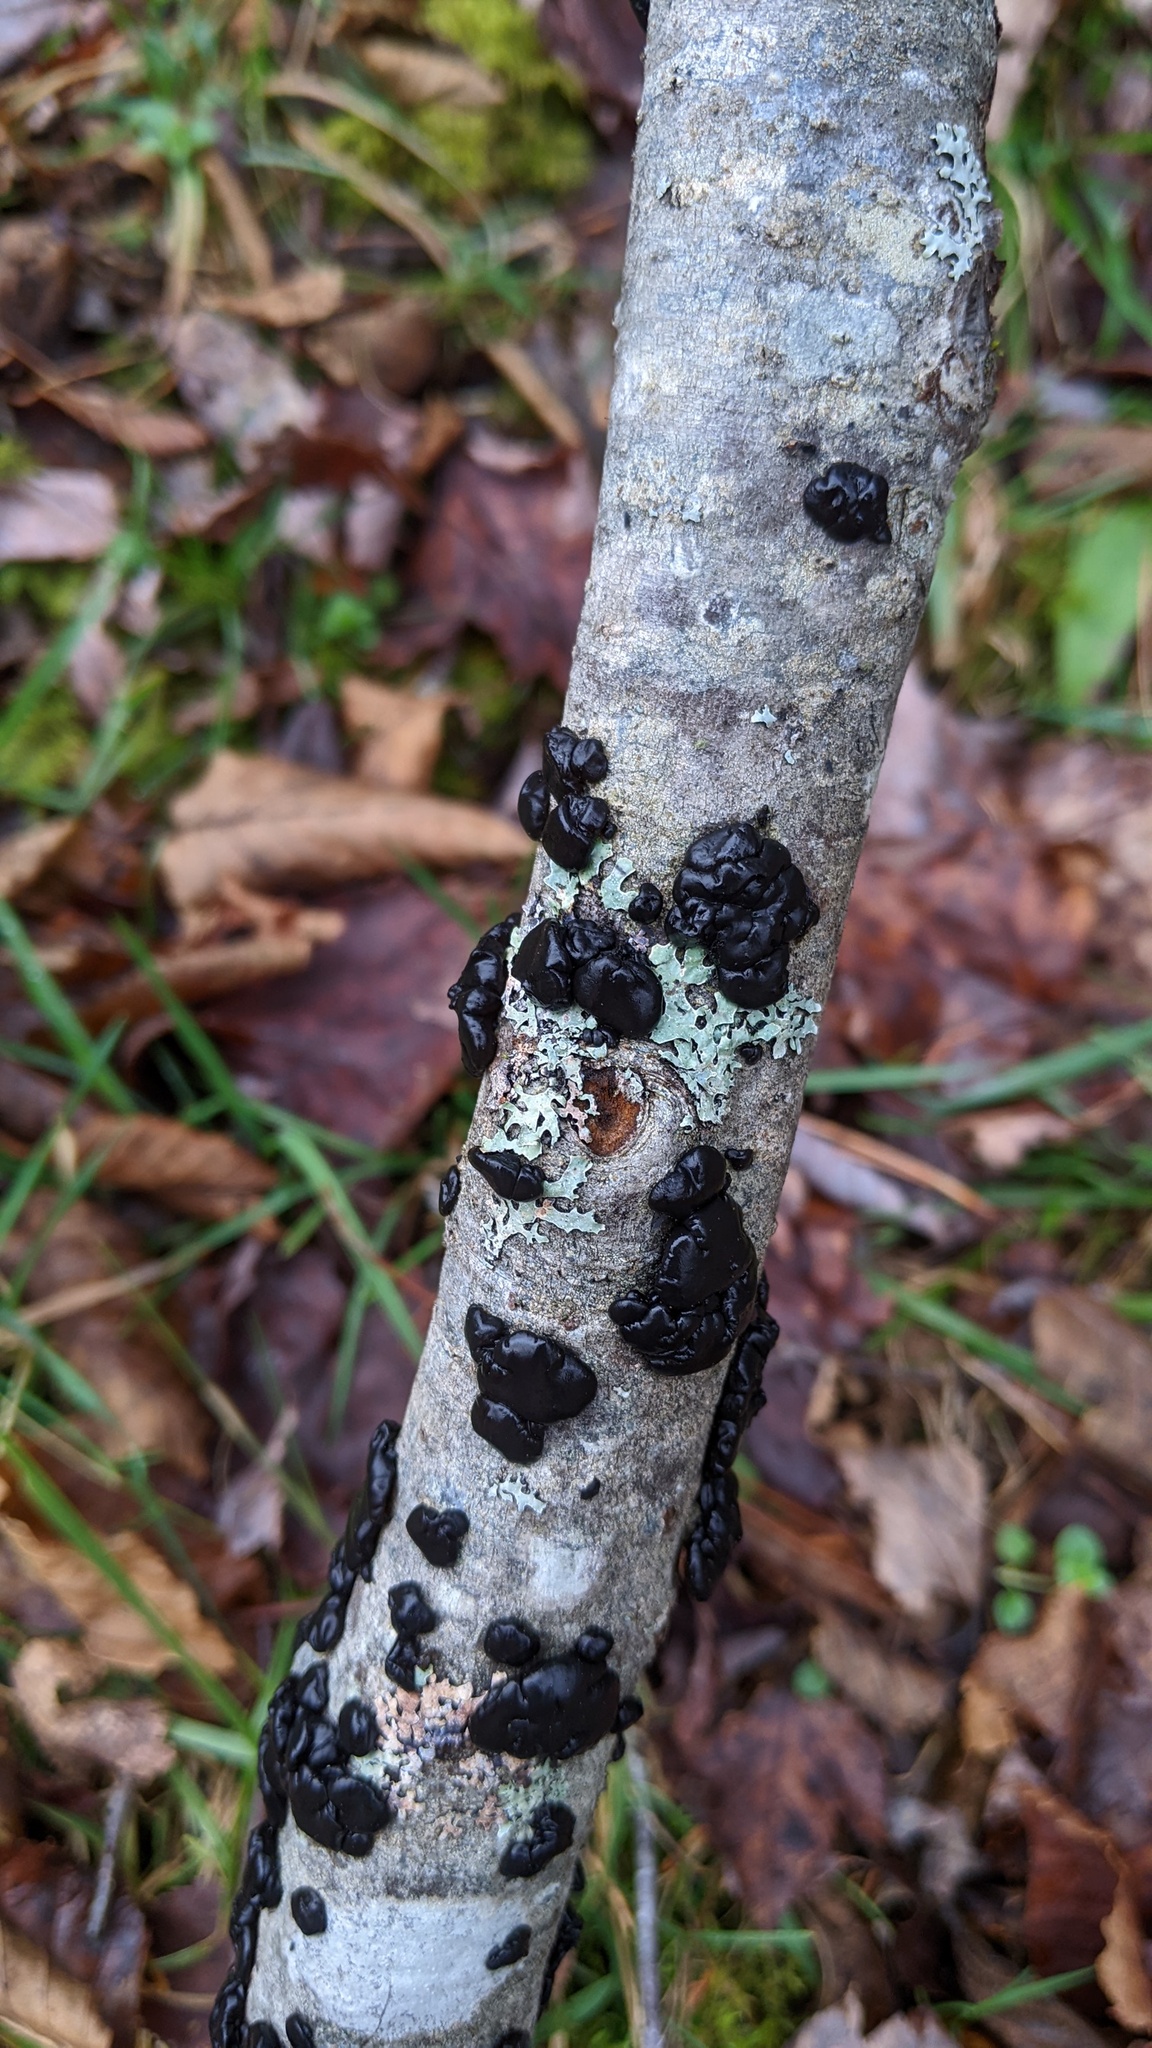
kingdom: Fungi
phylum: Basidiomycota
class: Agaricomycetes
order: Auriculariales
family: Auriculariaceae
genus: Exidia
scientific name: Exidia glandulosa
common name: Witches' butter
